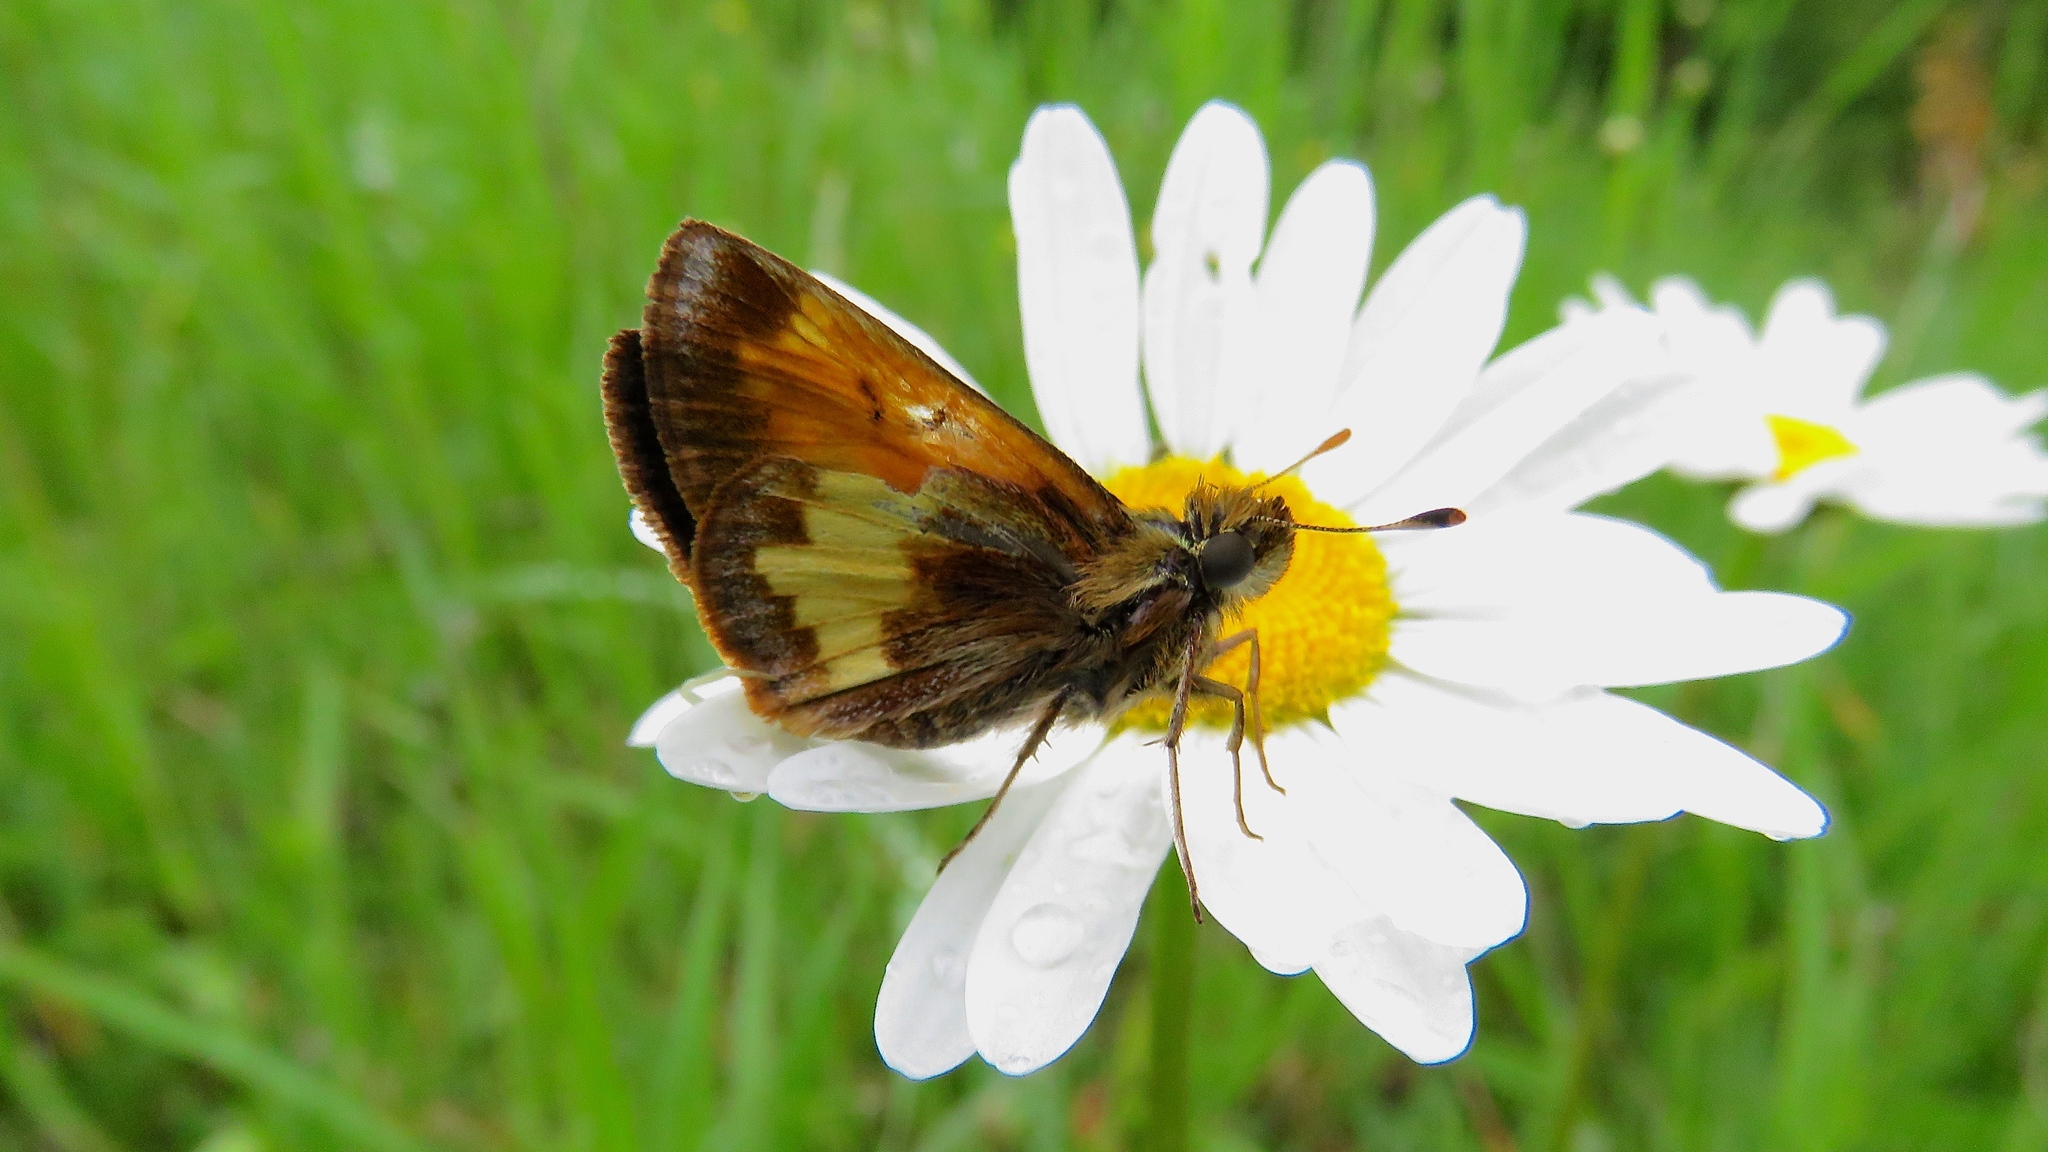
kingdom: Animalia
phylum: Arthropoda
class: Insecta
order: Lepidoptera
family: Hesperiidae
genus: Lon
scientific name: Lon hobomok
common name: Hobomok skipper
